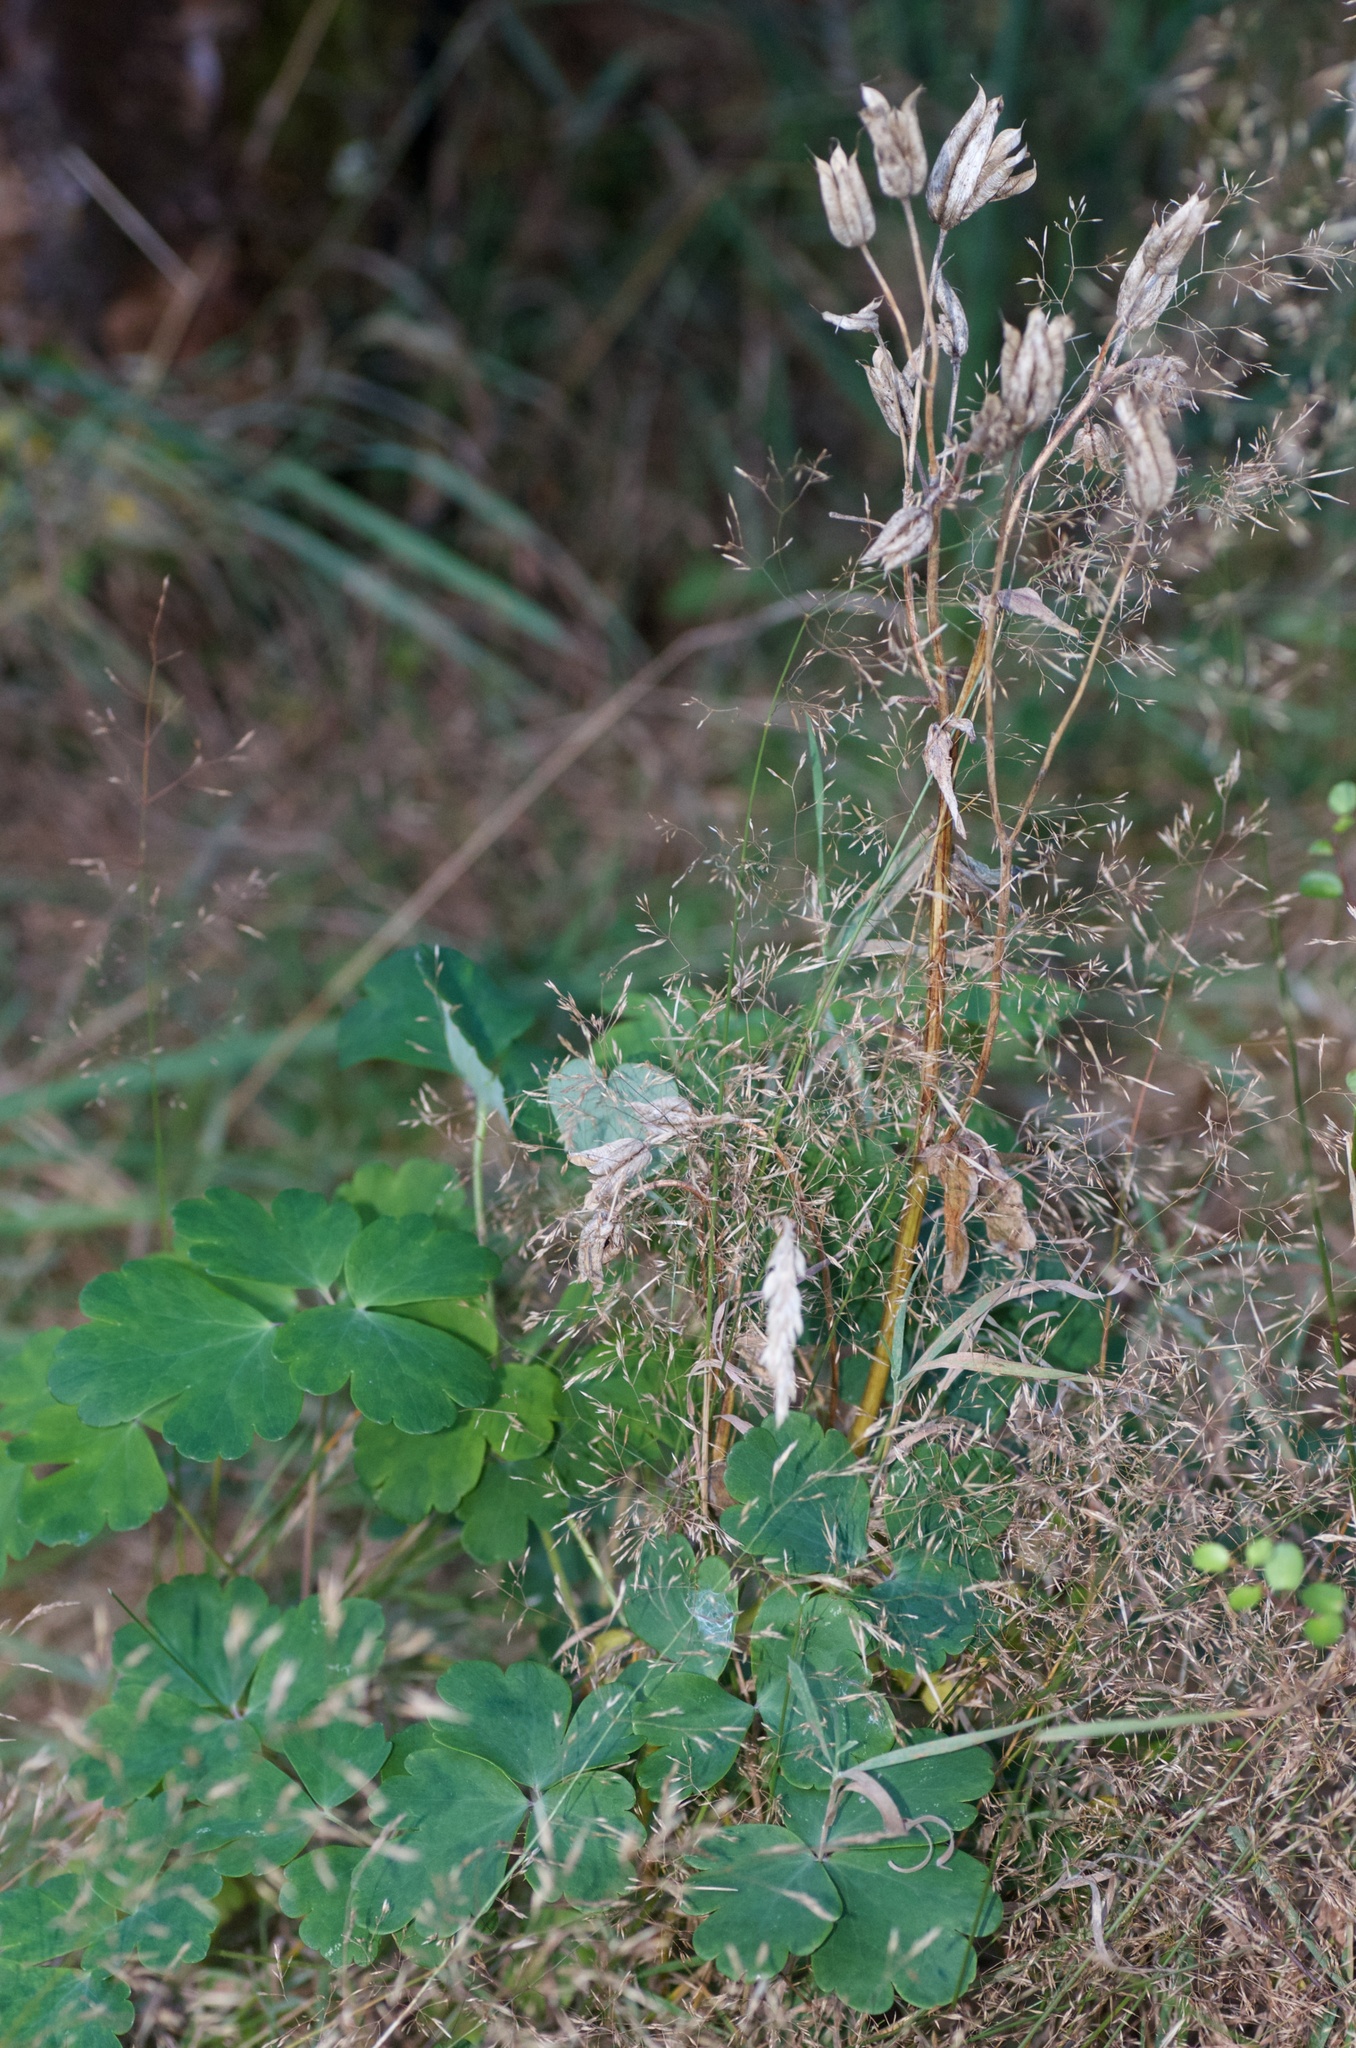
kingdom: Plantae
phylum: Tracheophyta
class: Magnoliopsida
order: Ranunculales
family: Ranunculaceae
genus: Aquilegia
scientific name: Aquilegia vulgaris
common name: Columbine
